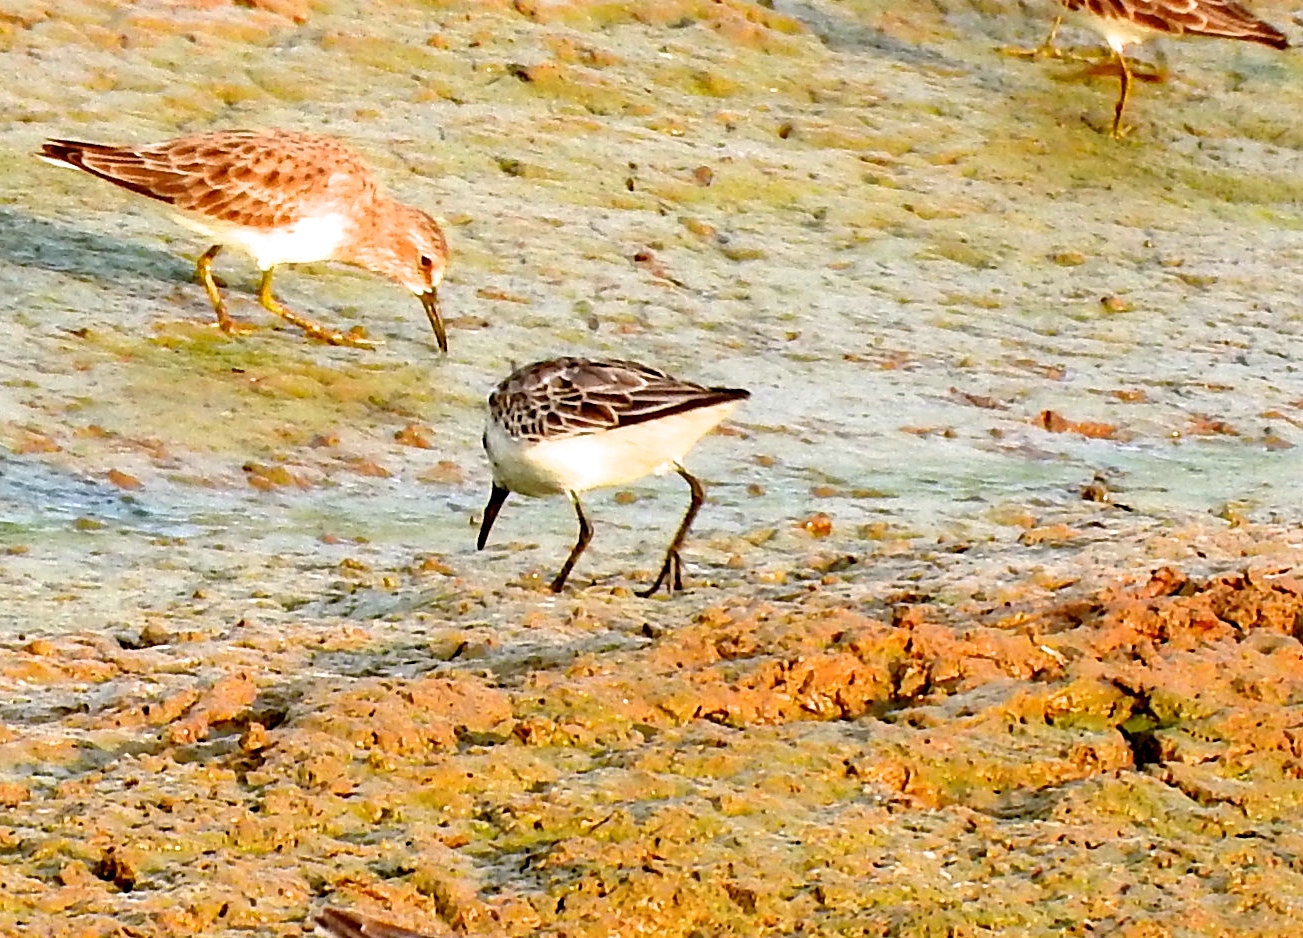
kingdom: Animalia
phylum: Chordata
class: Aves
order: Charadriiformes
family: Scolopacidae
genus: Calidris
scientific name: Calidris mauri
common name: Western sandpiper
